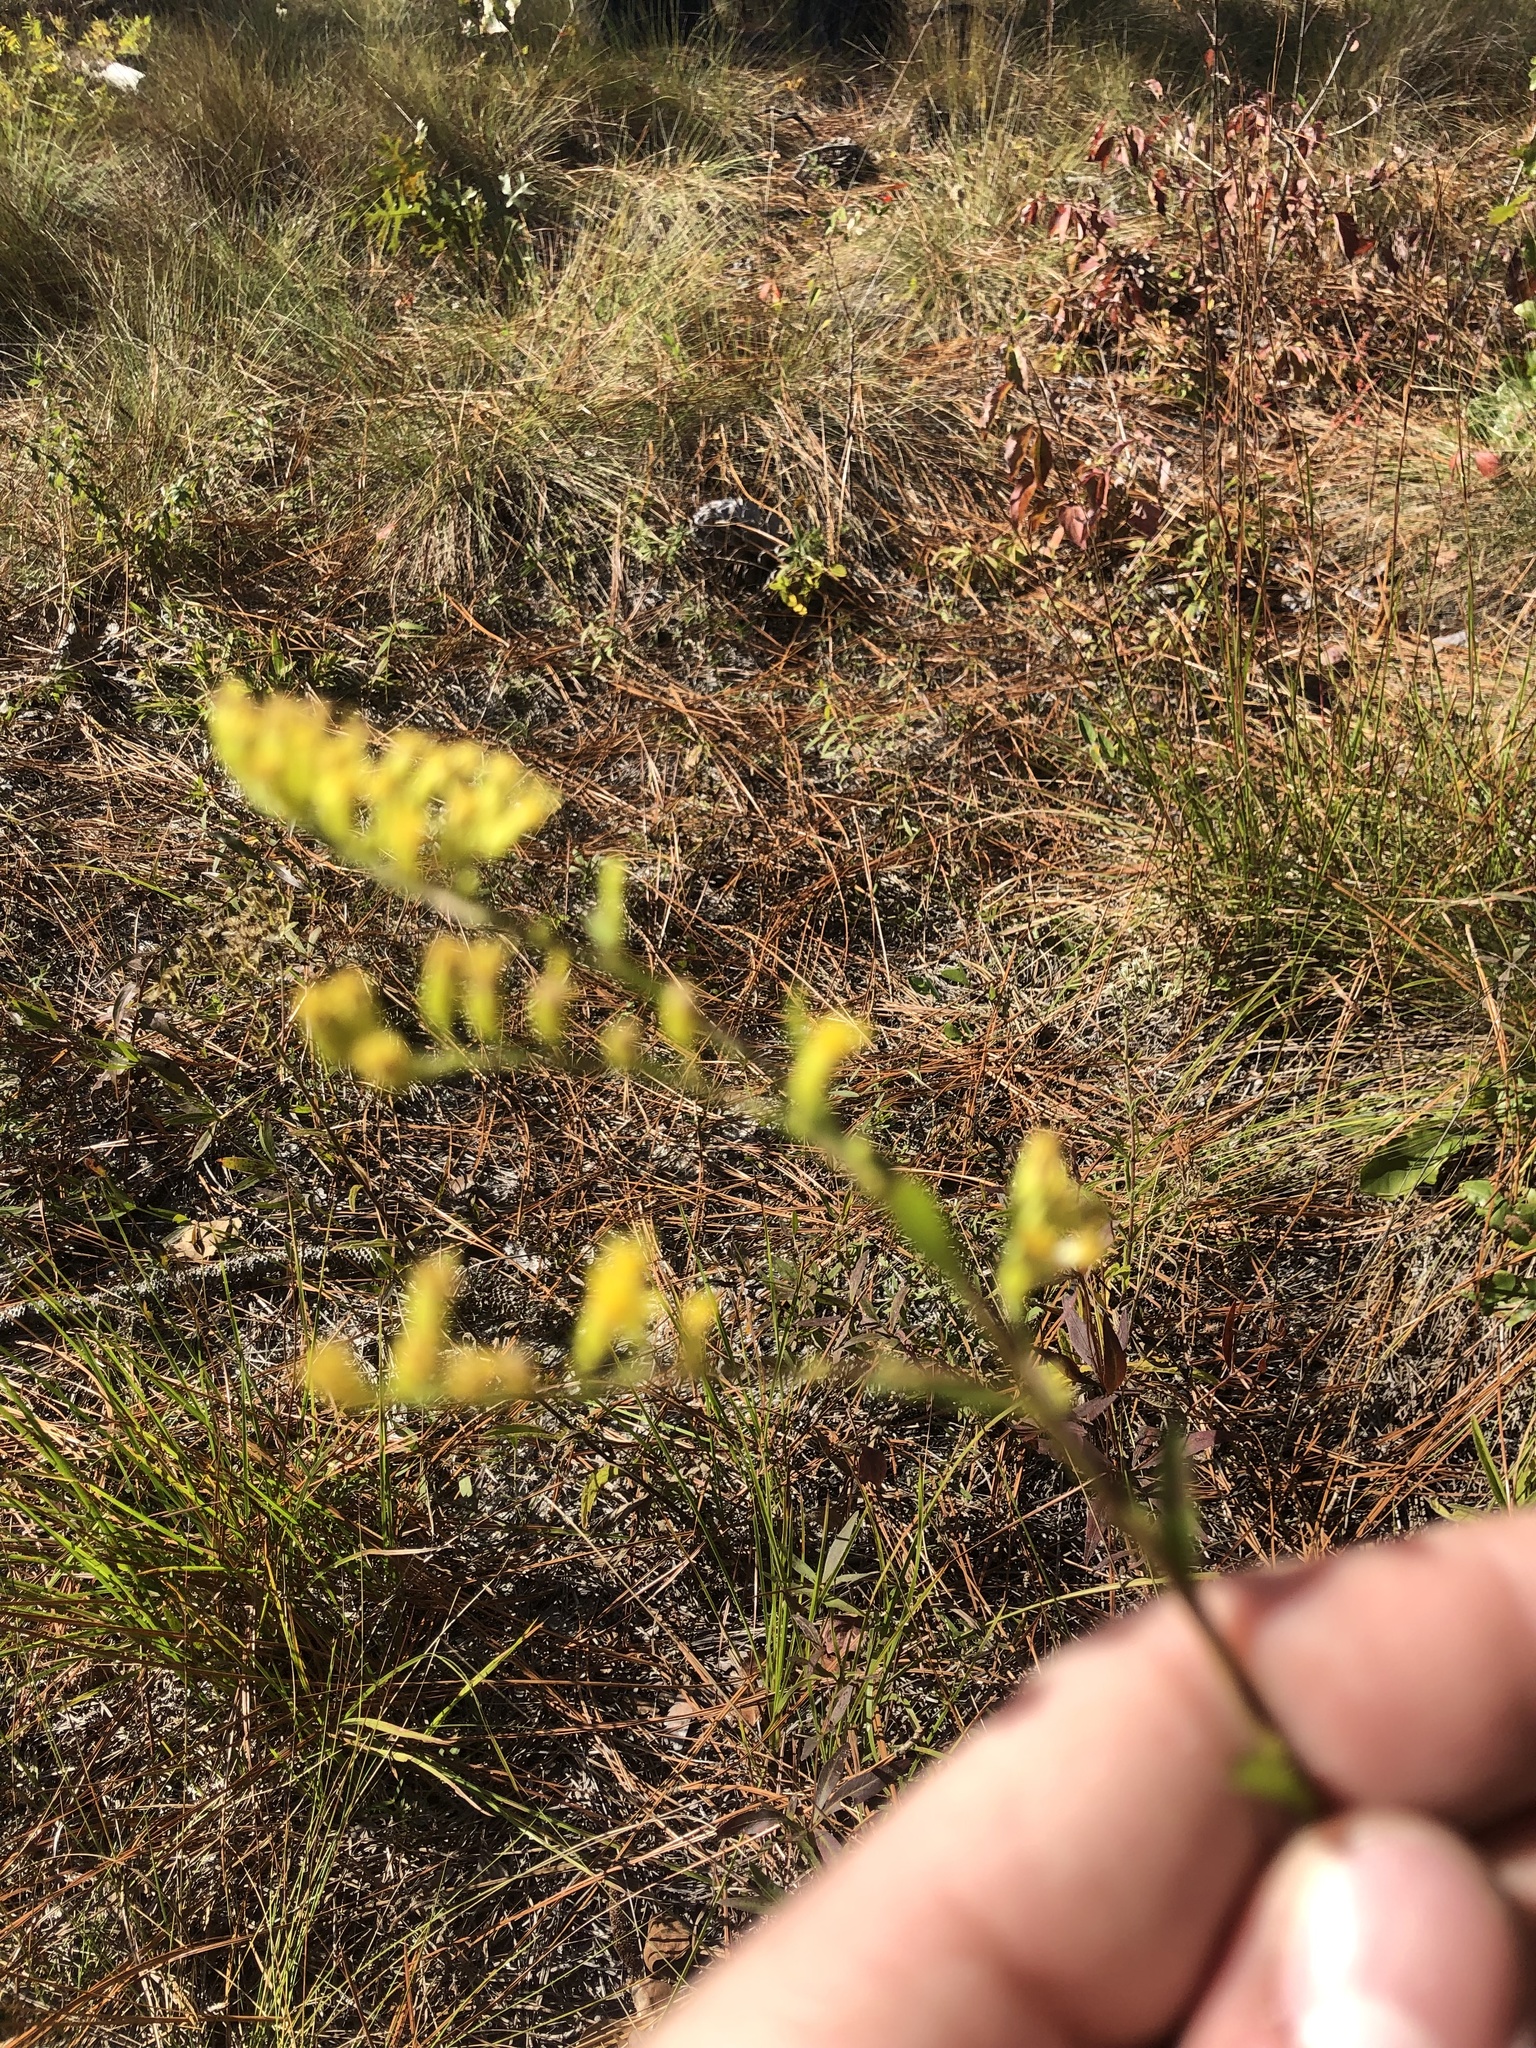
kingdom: Plantae
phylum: Tracheophyta
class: Magnoliopsida
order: Asterales
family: Asteraceae
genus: Solidago
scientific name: Solidago vaseyi
